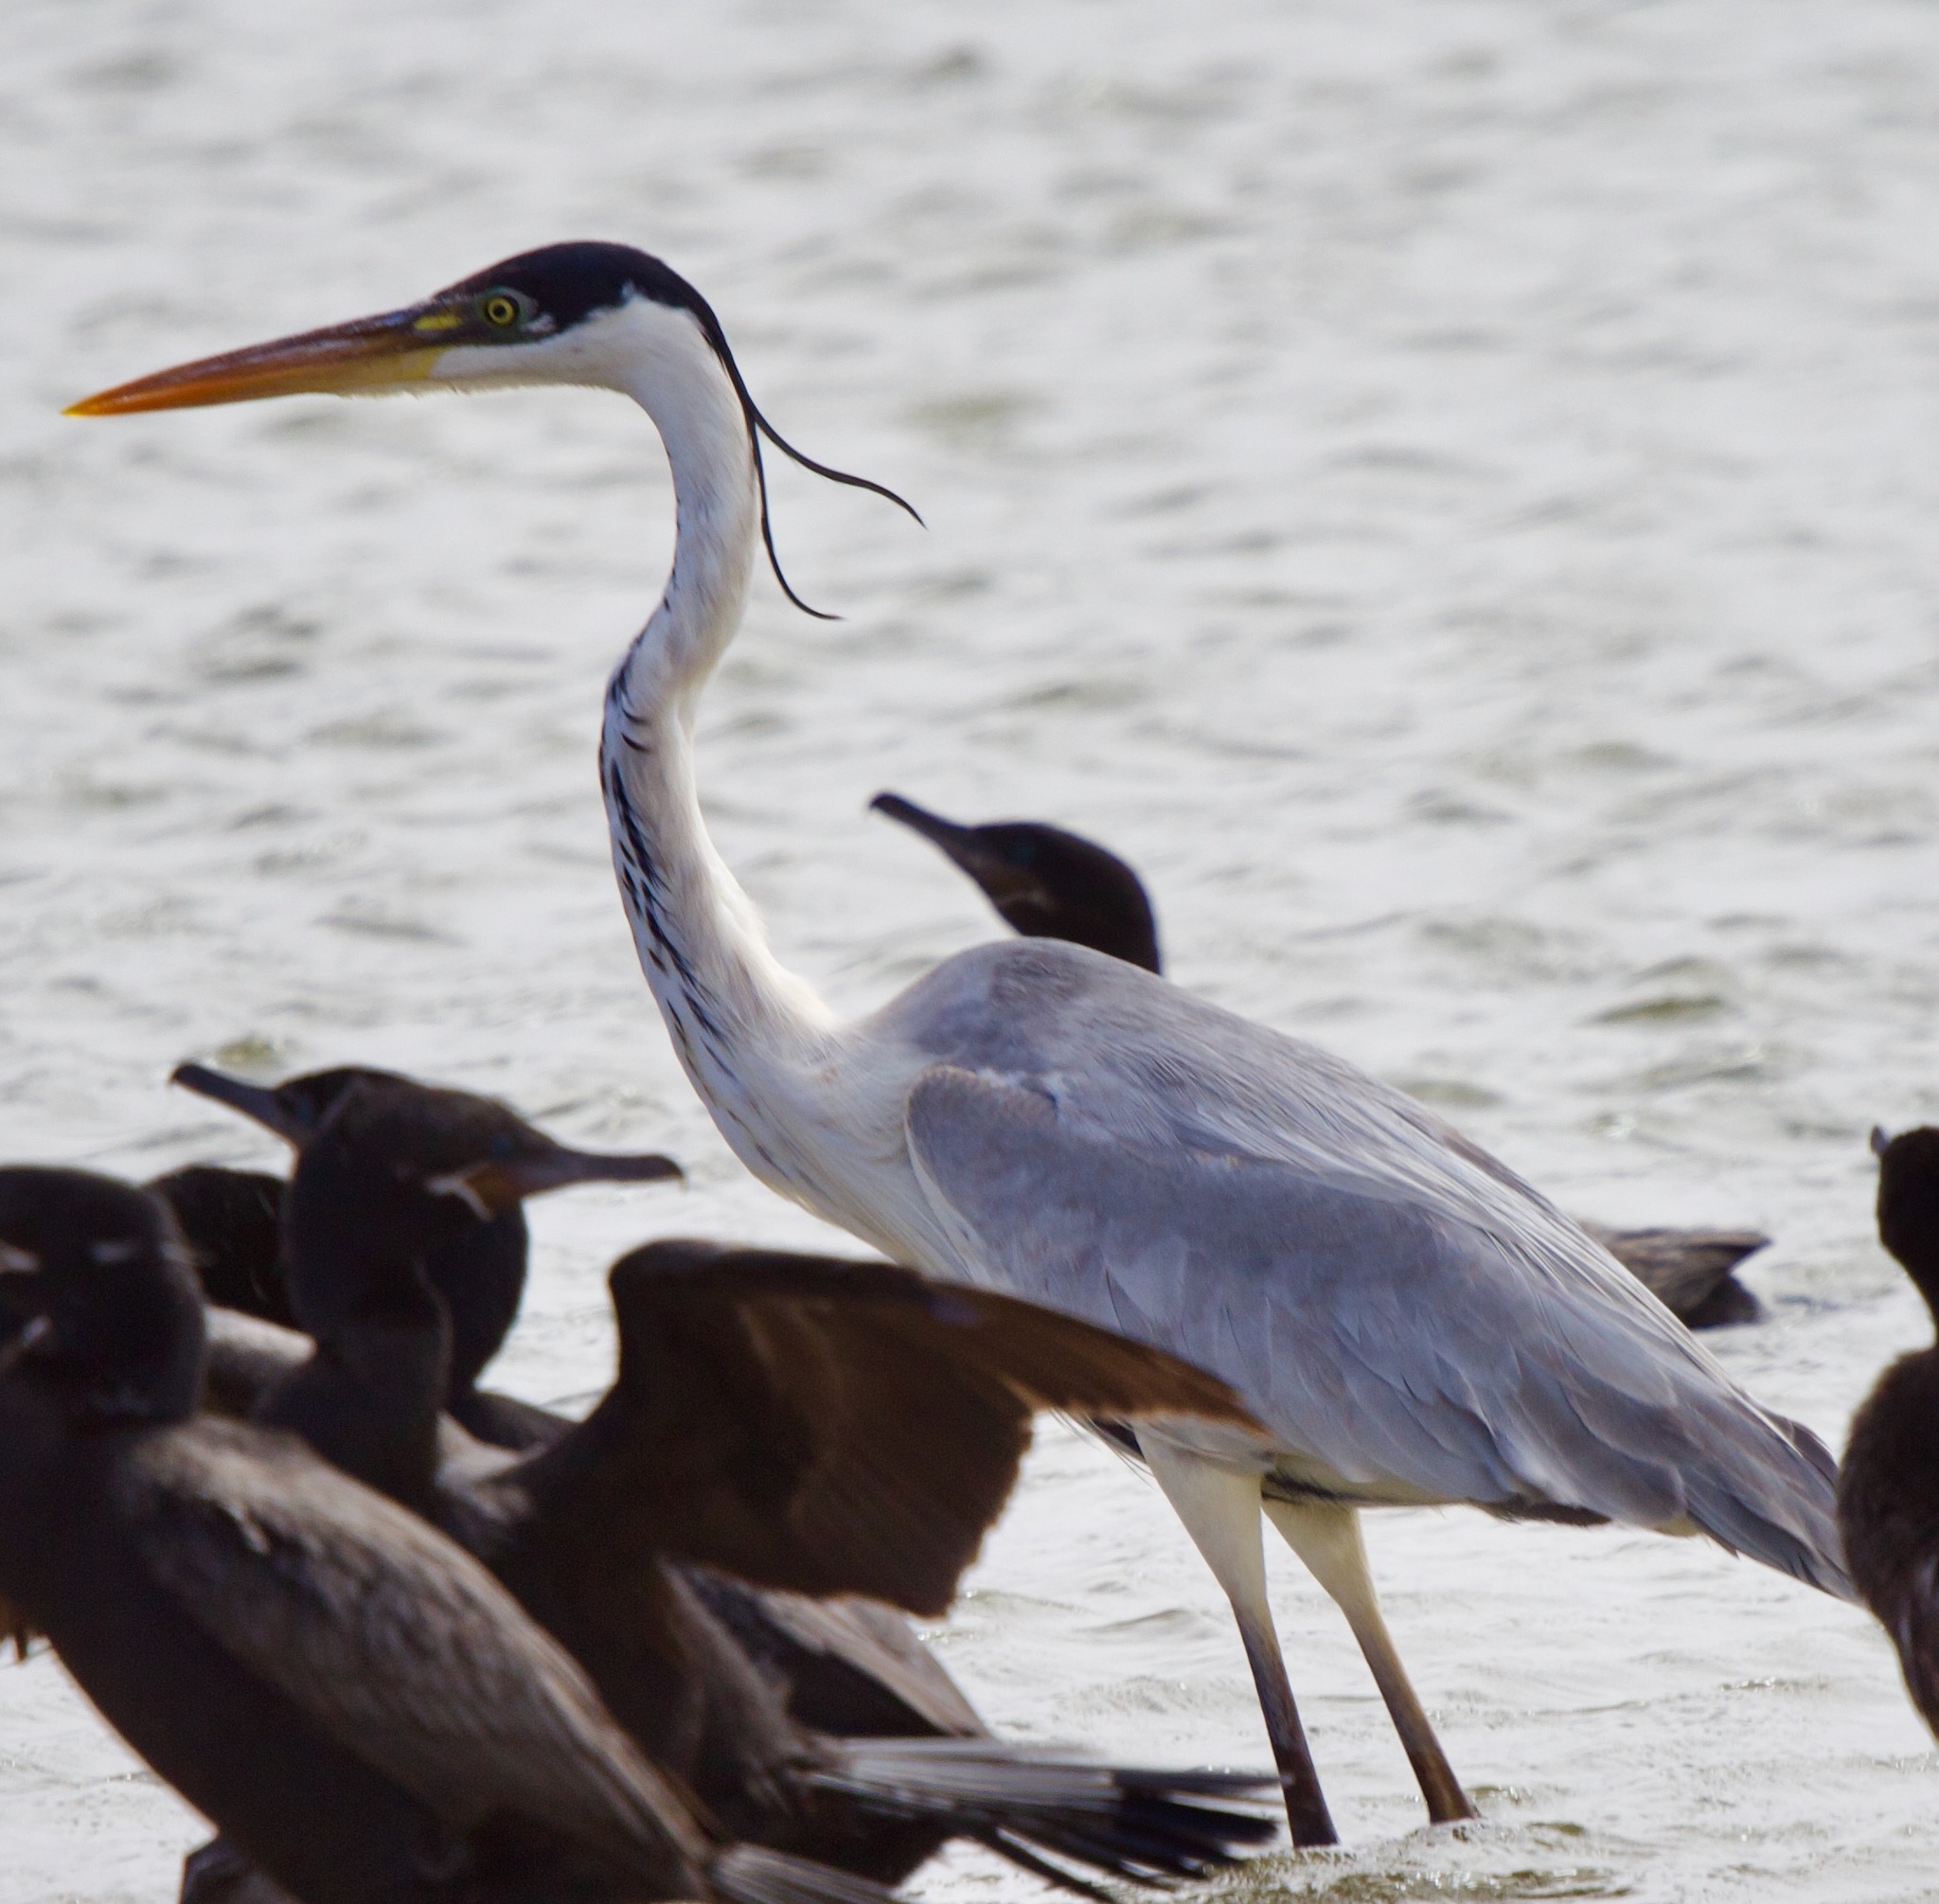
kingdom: Animalia
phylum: Chordata
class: Aves
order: Pelecaniformes
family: Ardeidae
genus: Ardea
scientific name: Ardea cocoi
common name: Cocoi heron
